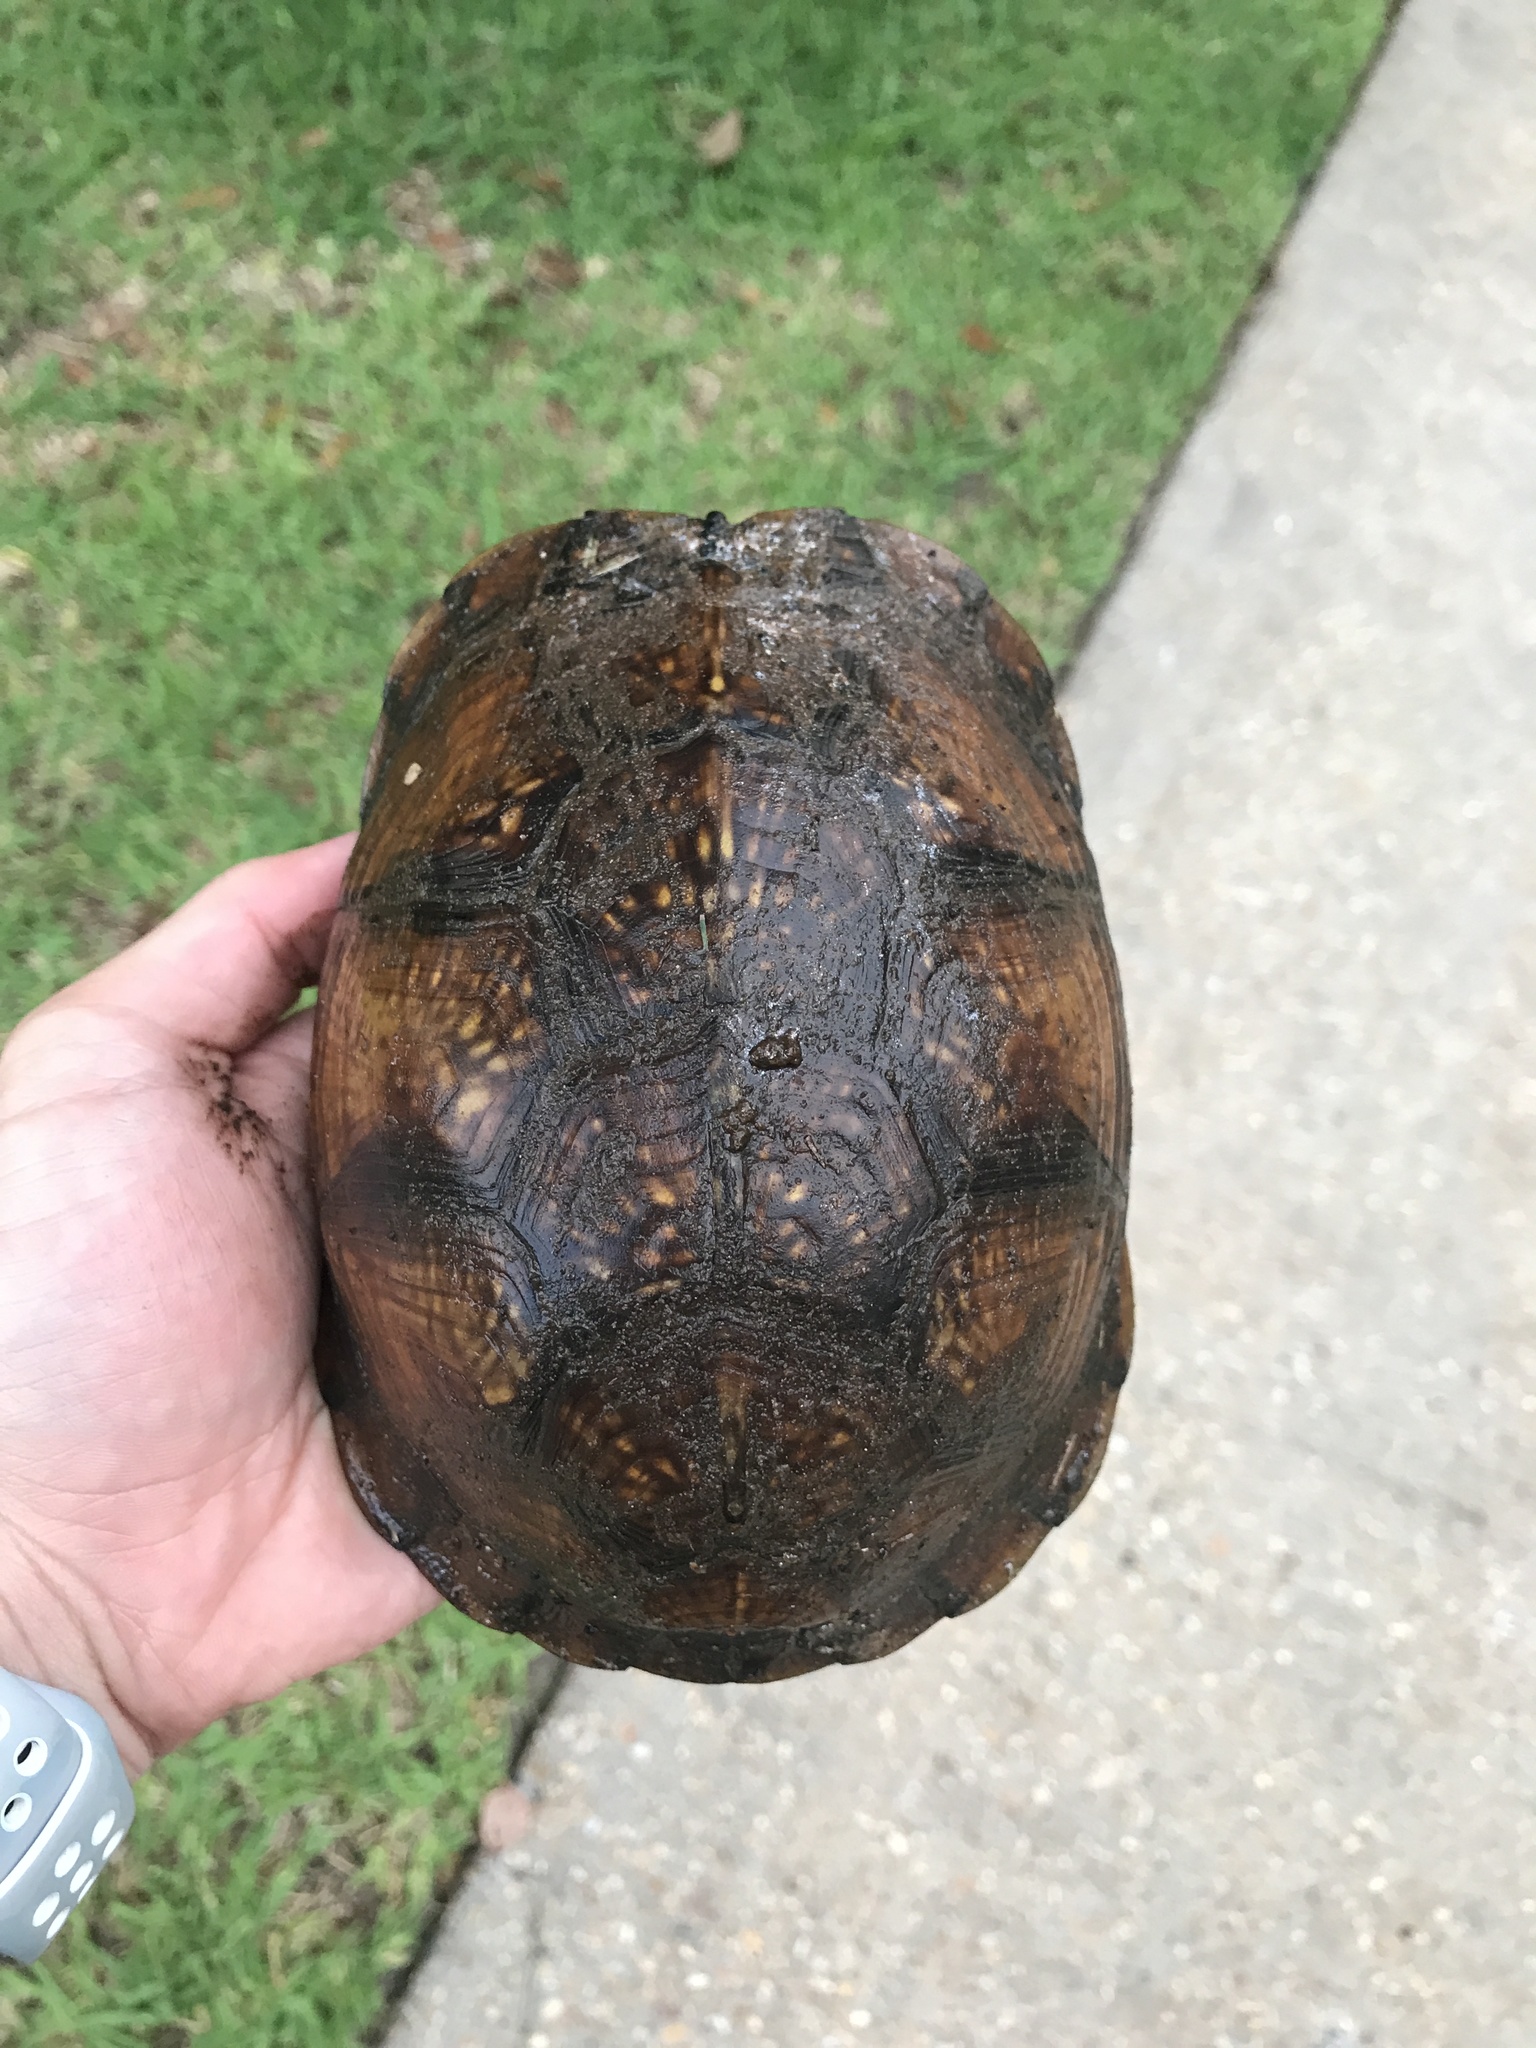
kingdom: Animalia
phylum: Chordata
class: Testudines
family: Emydidae
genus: Terrapene
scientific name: Terrapene carolina
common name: Common box turtle
